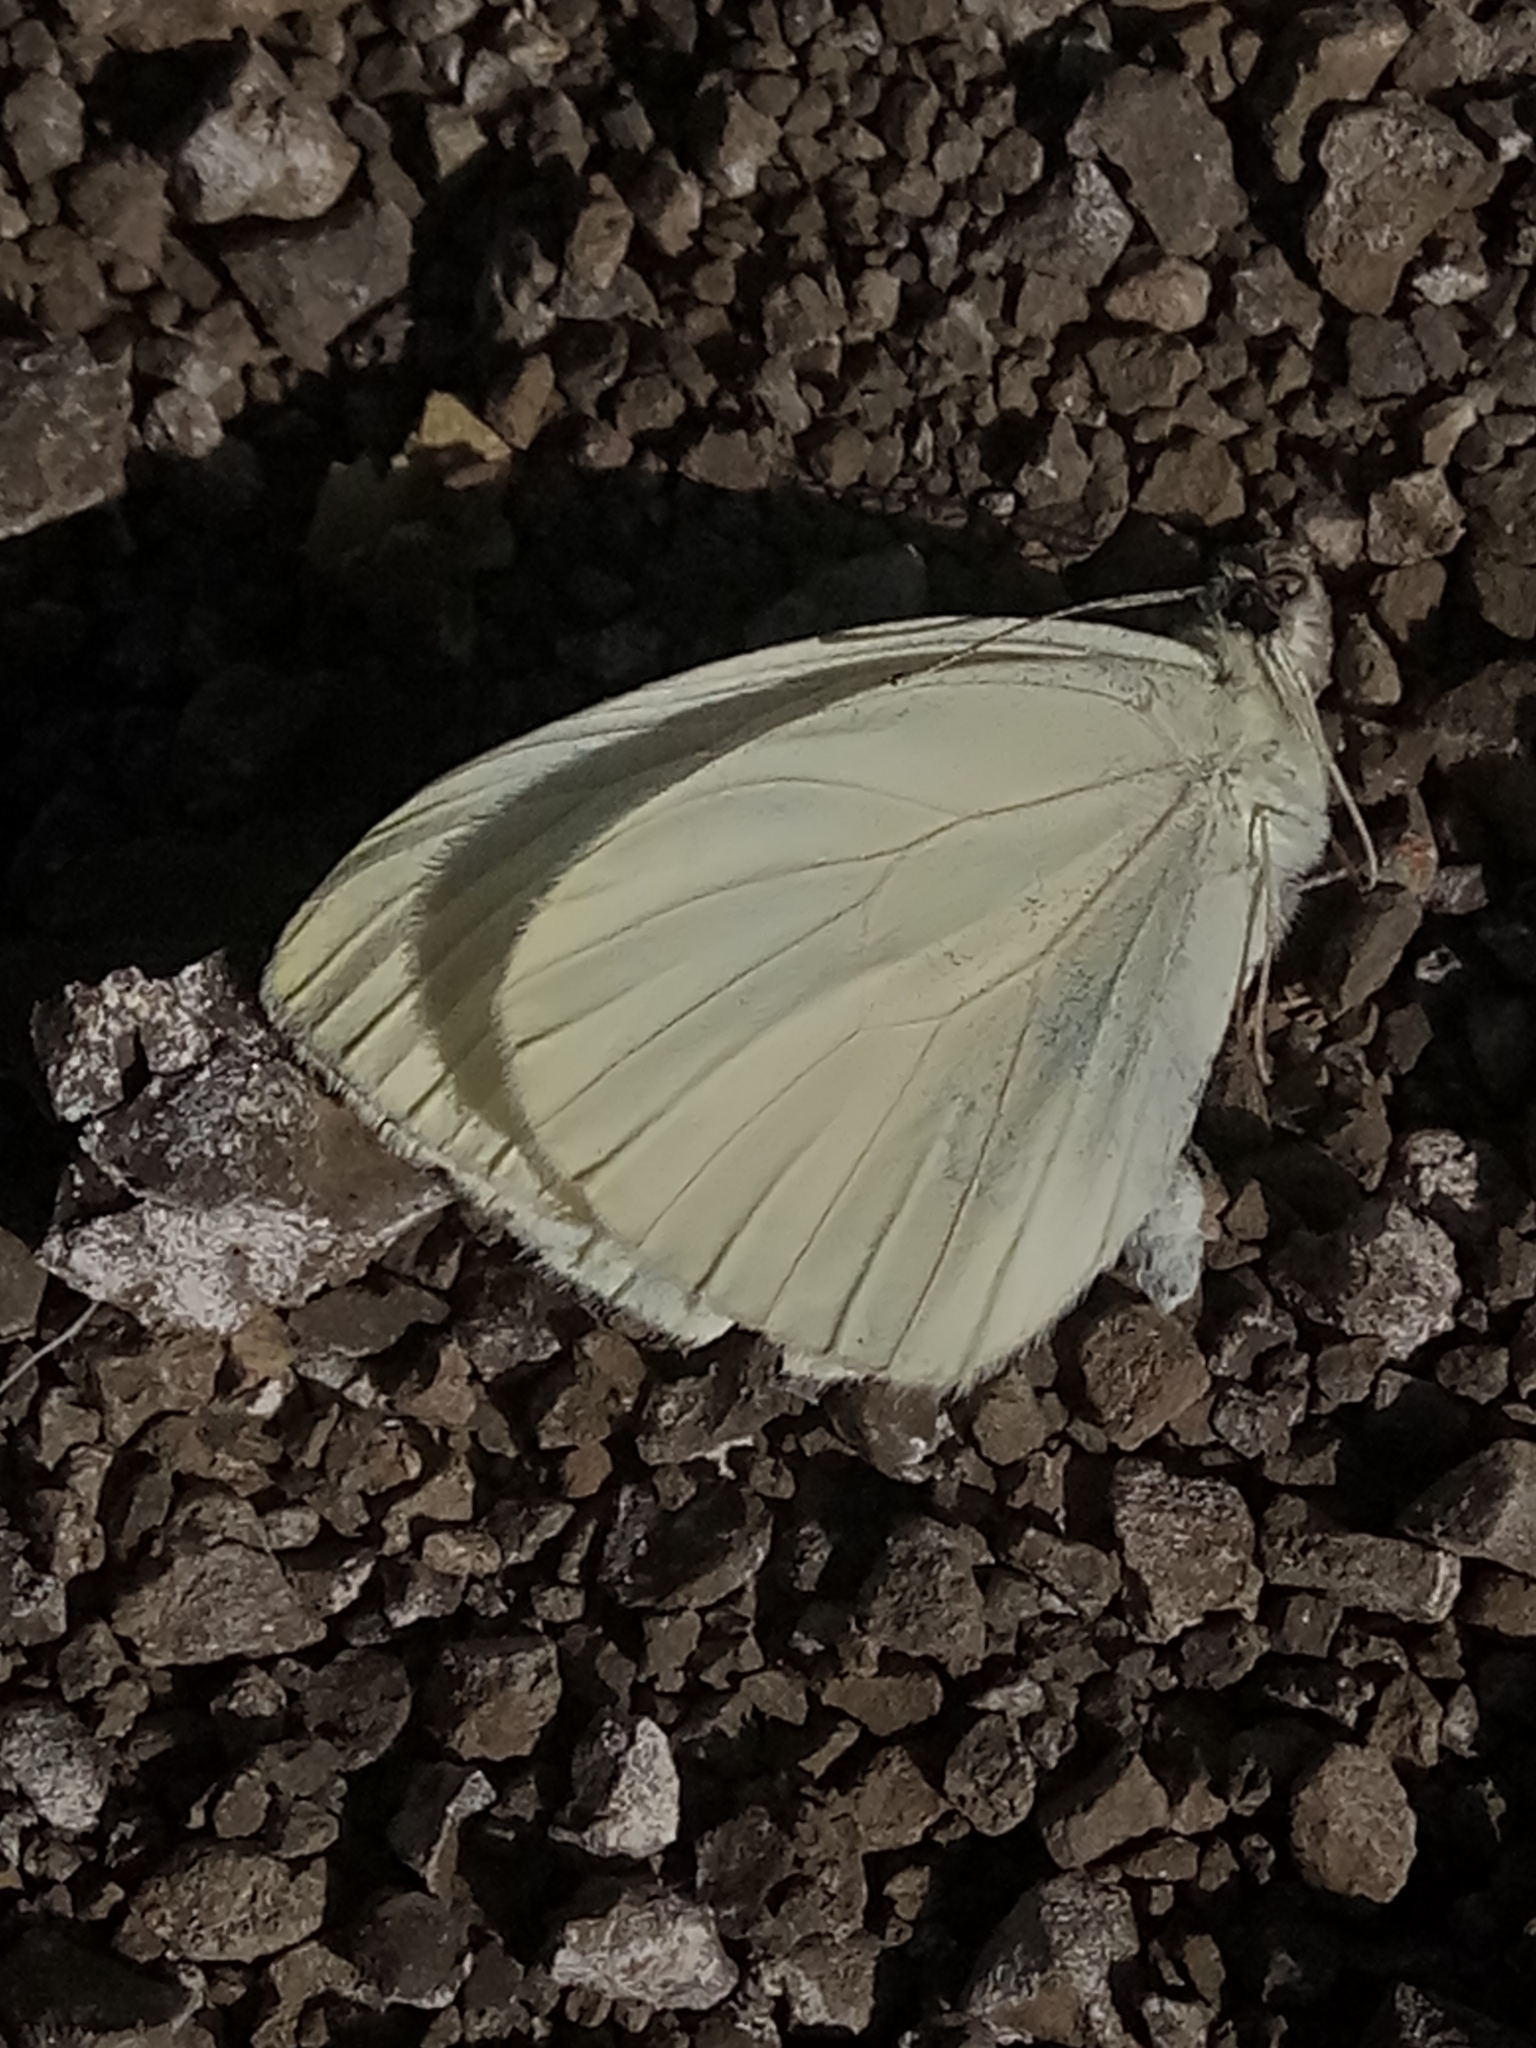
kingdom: Animalia
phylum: Arthropoda
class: Insecta
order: Lepidoptera
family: Pieridae
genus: Pieris
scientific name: Pieris rapae
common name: Small white
